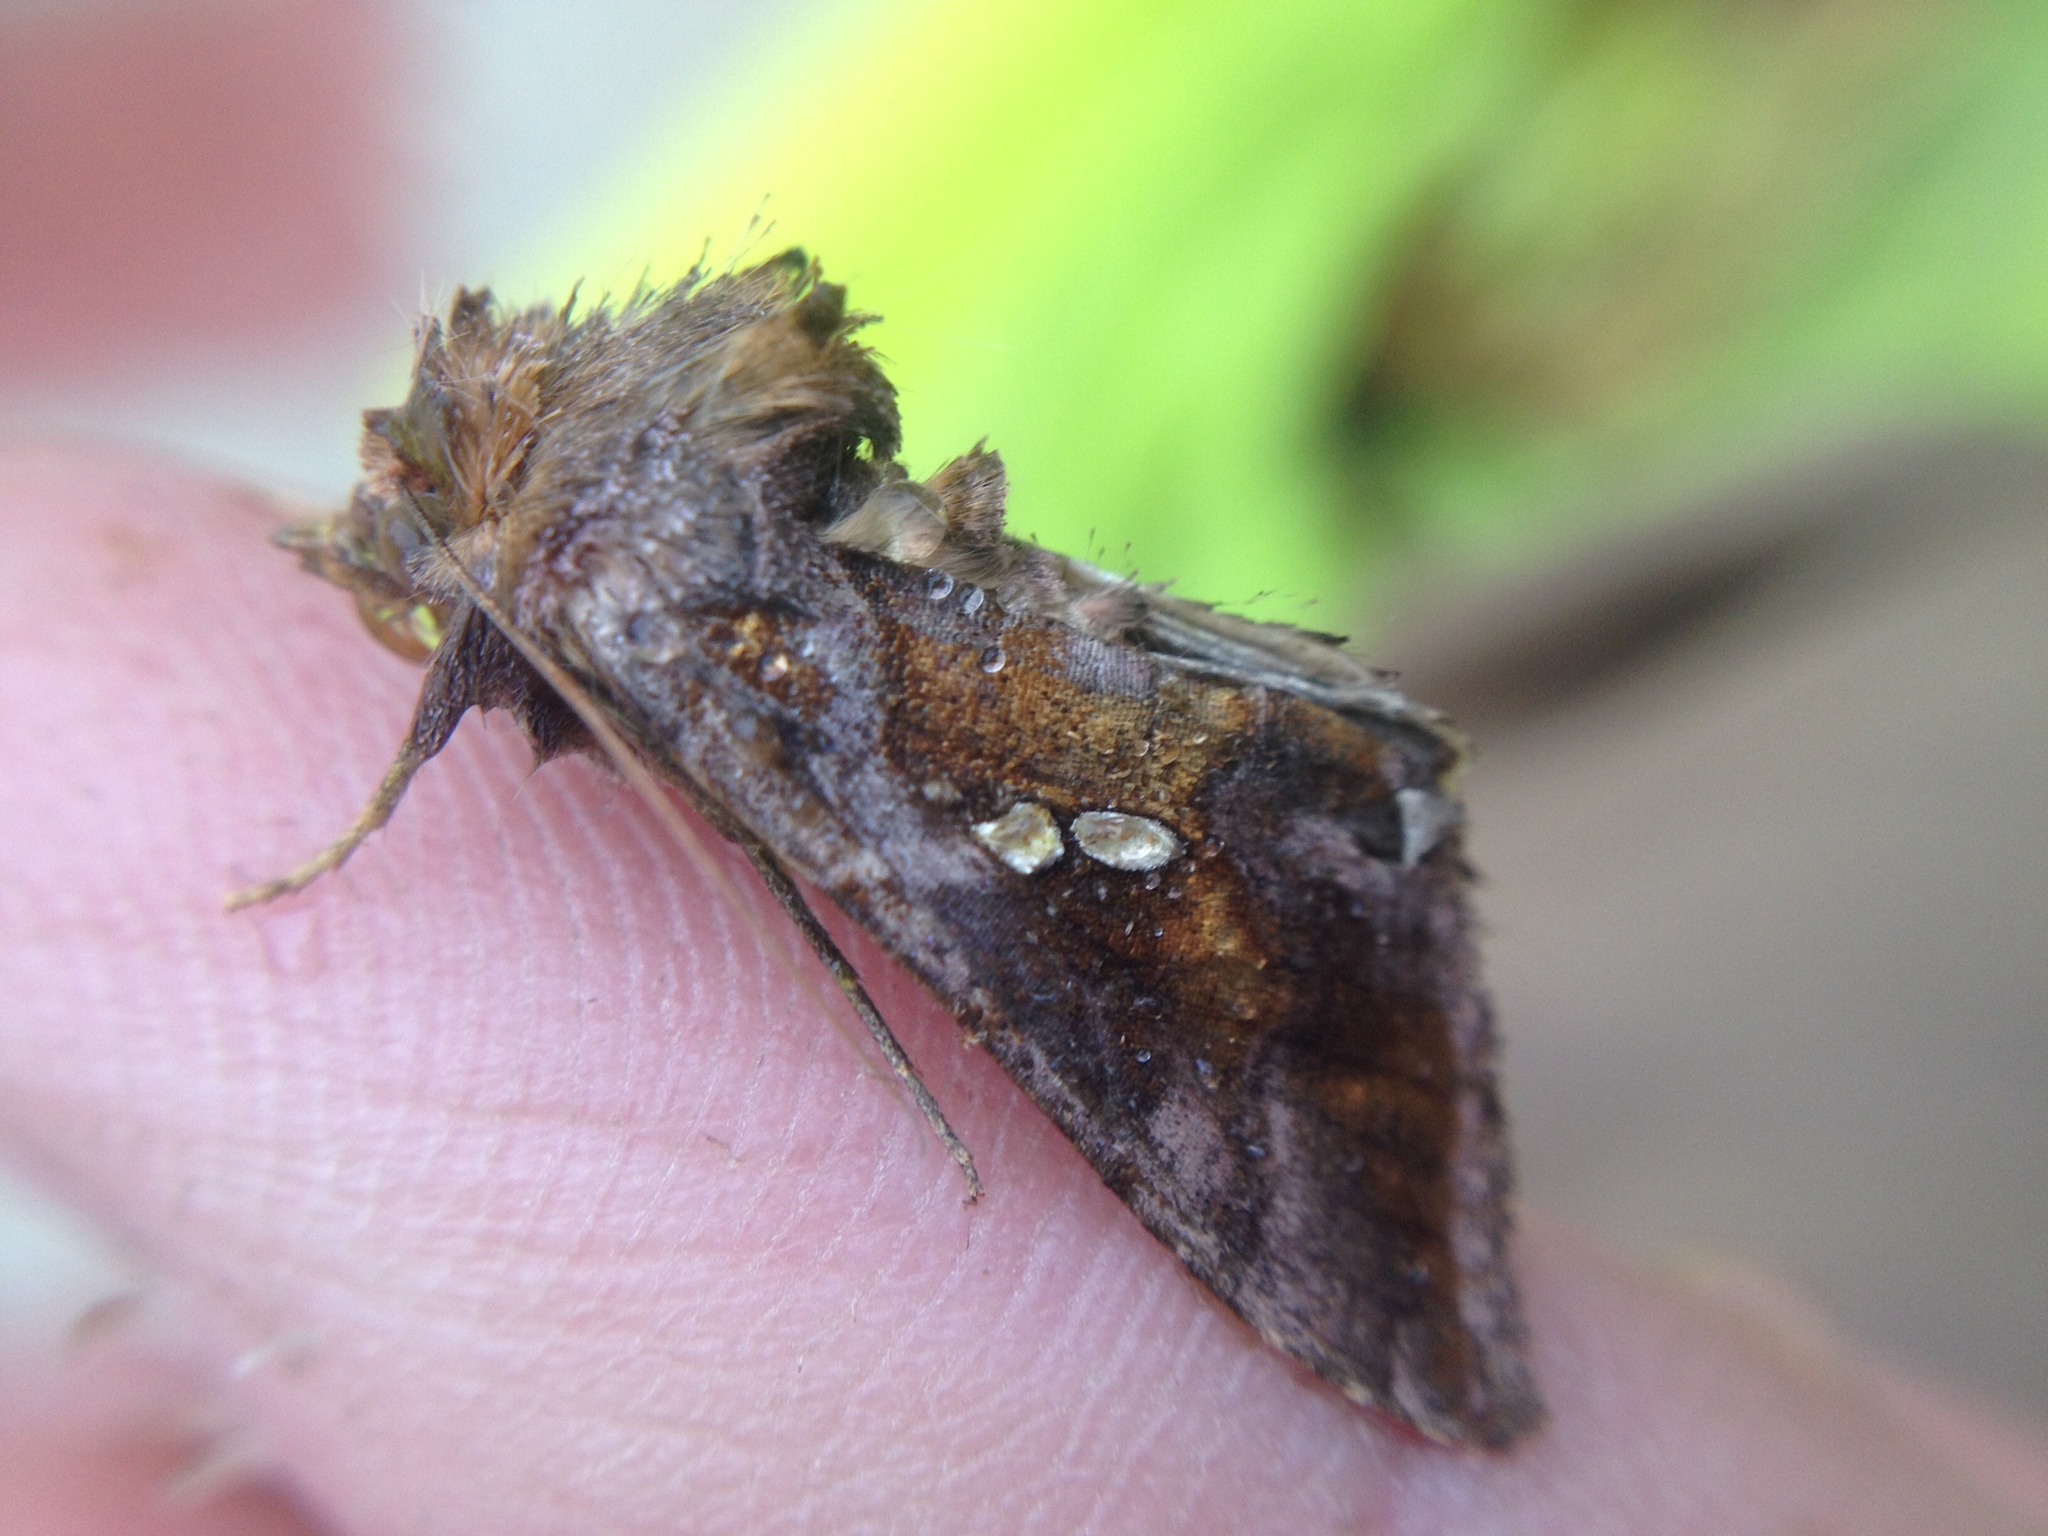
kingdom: Animalia
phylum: Arthropoda
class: Insecta
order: Lepidoptera
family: Noctuidae
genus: Chrysodeixis
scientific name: Chrysodeixis chalcites
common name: Golden twin-spot
